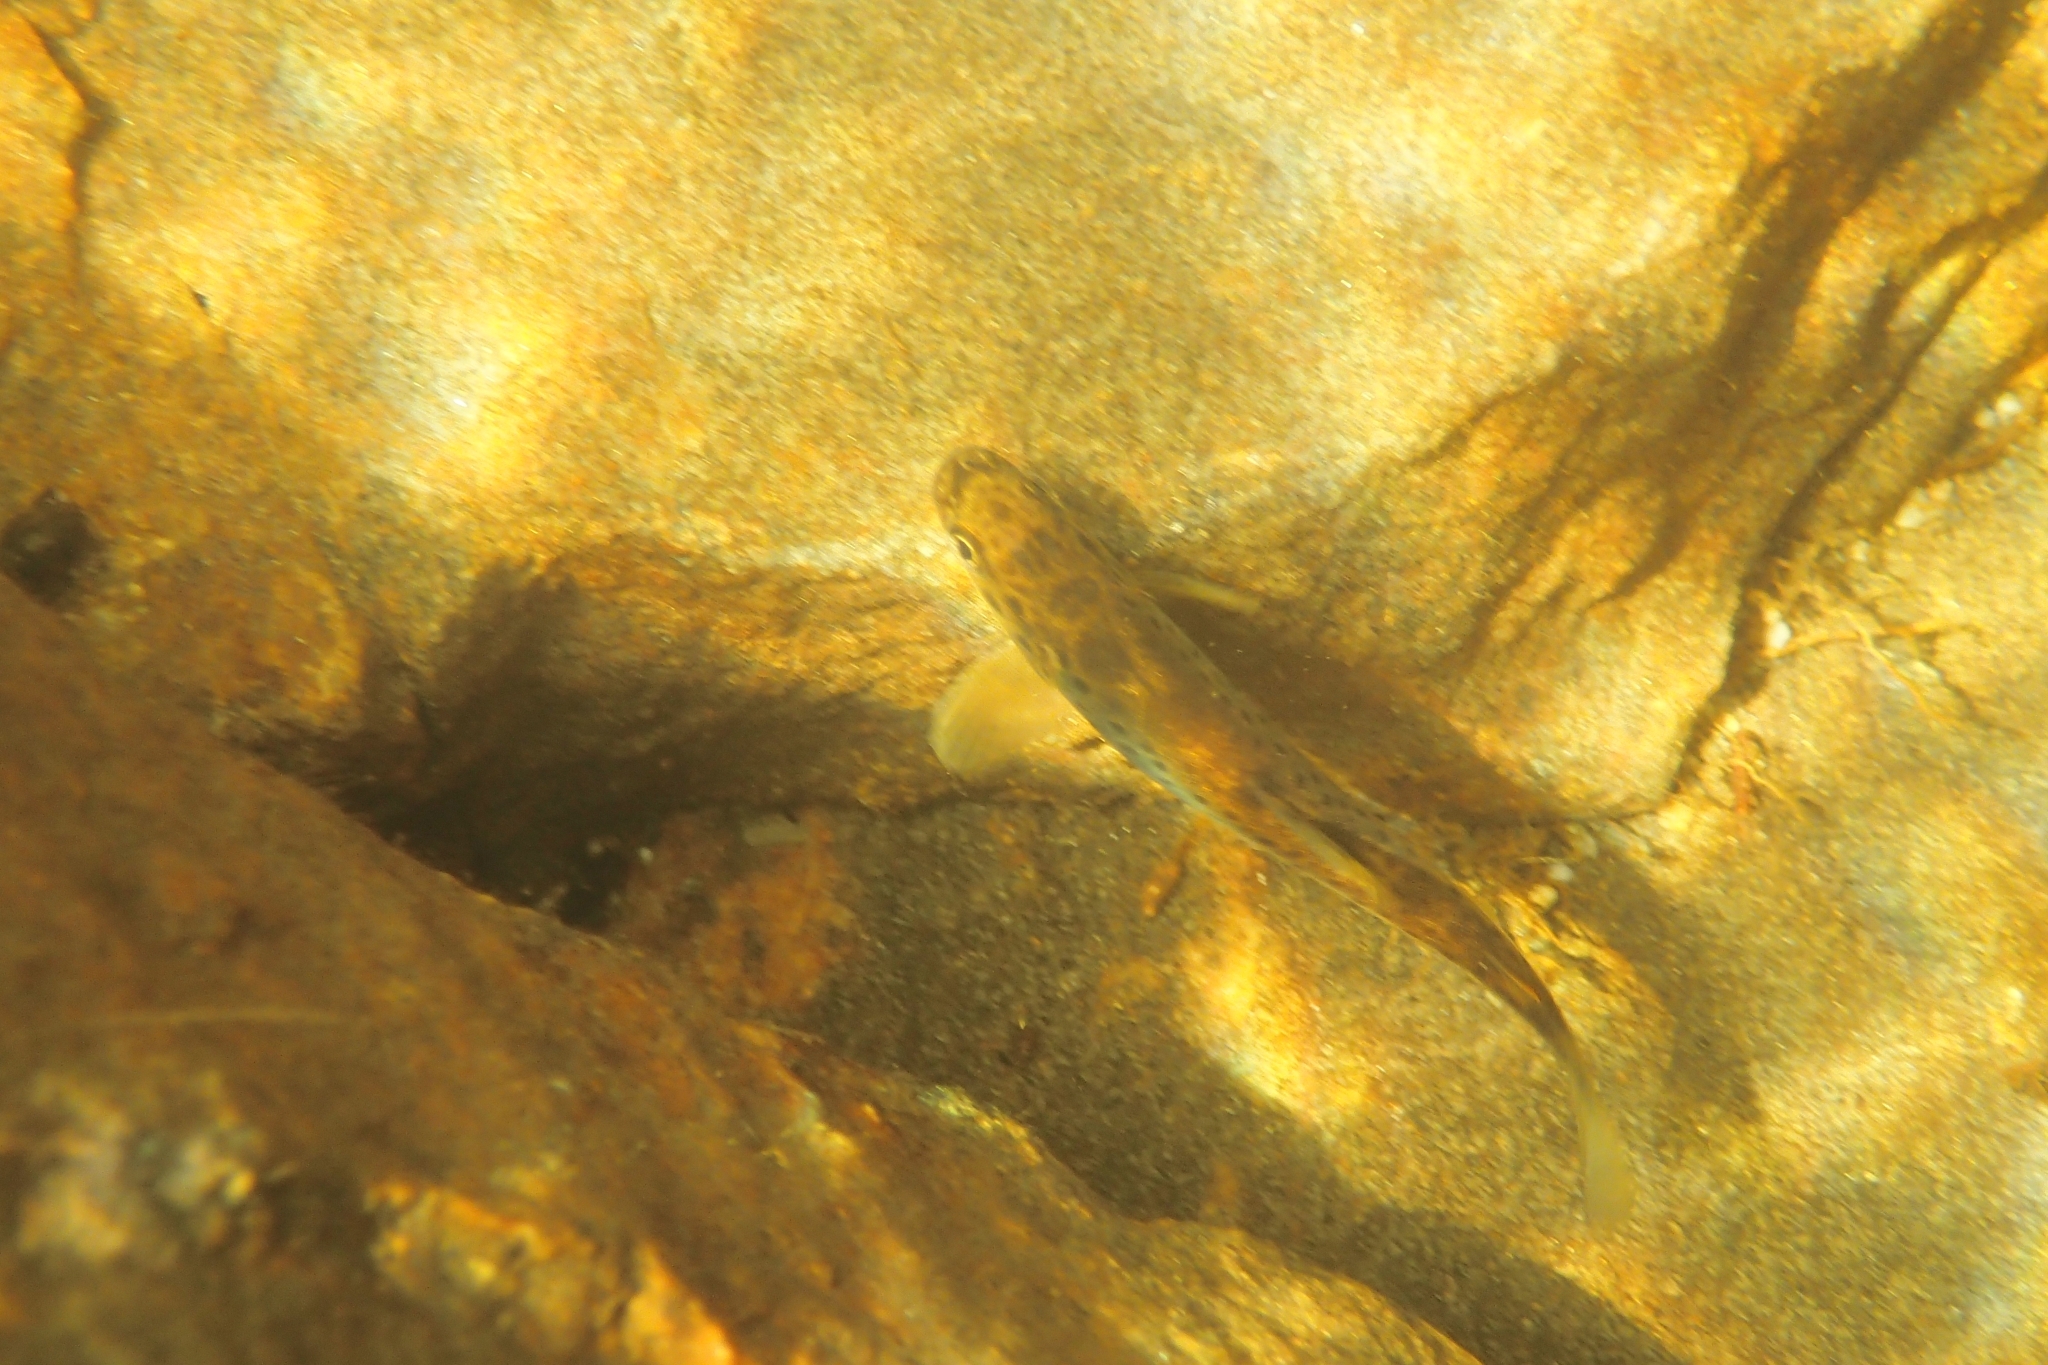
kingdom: Animalia
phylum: Chordata
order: Salmoniformes
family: Salmonidae
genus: Salmo
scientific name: Salmo trutta
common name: Brown trout
